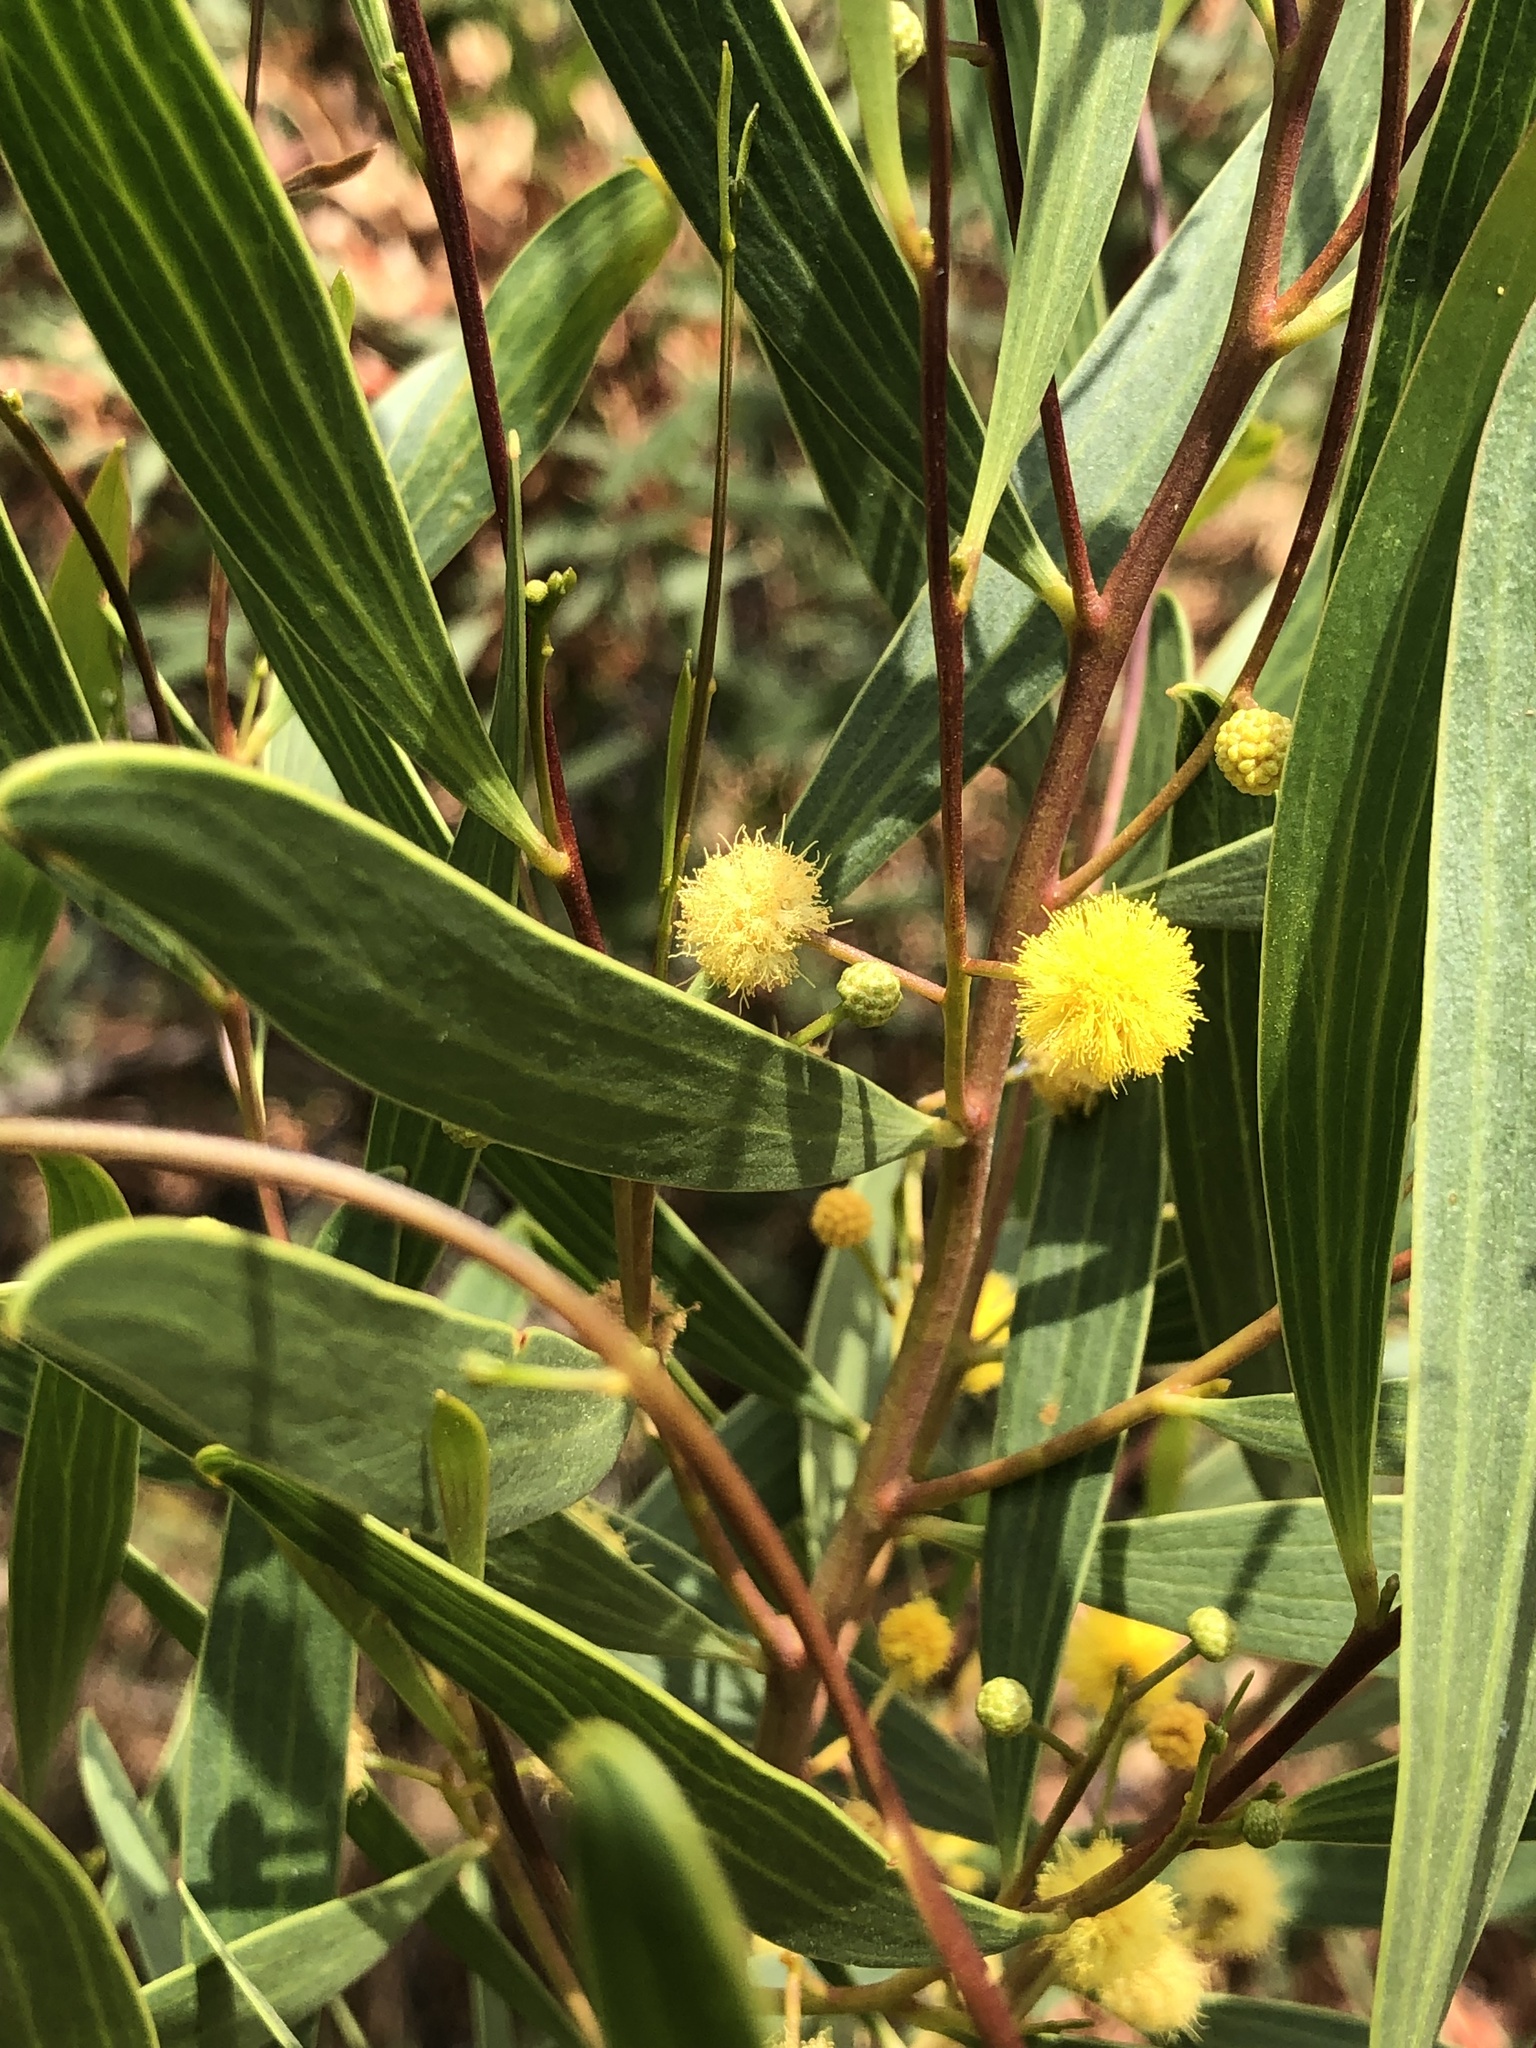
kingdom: Plantae
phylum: Tracheophyta
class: Magnoliopsida
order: Fabales
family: Fabaceae
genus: Acacia
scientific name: Acacia cyclops
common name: Coastal wattle
